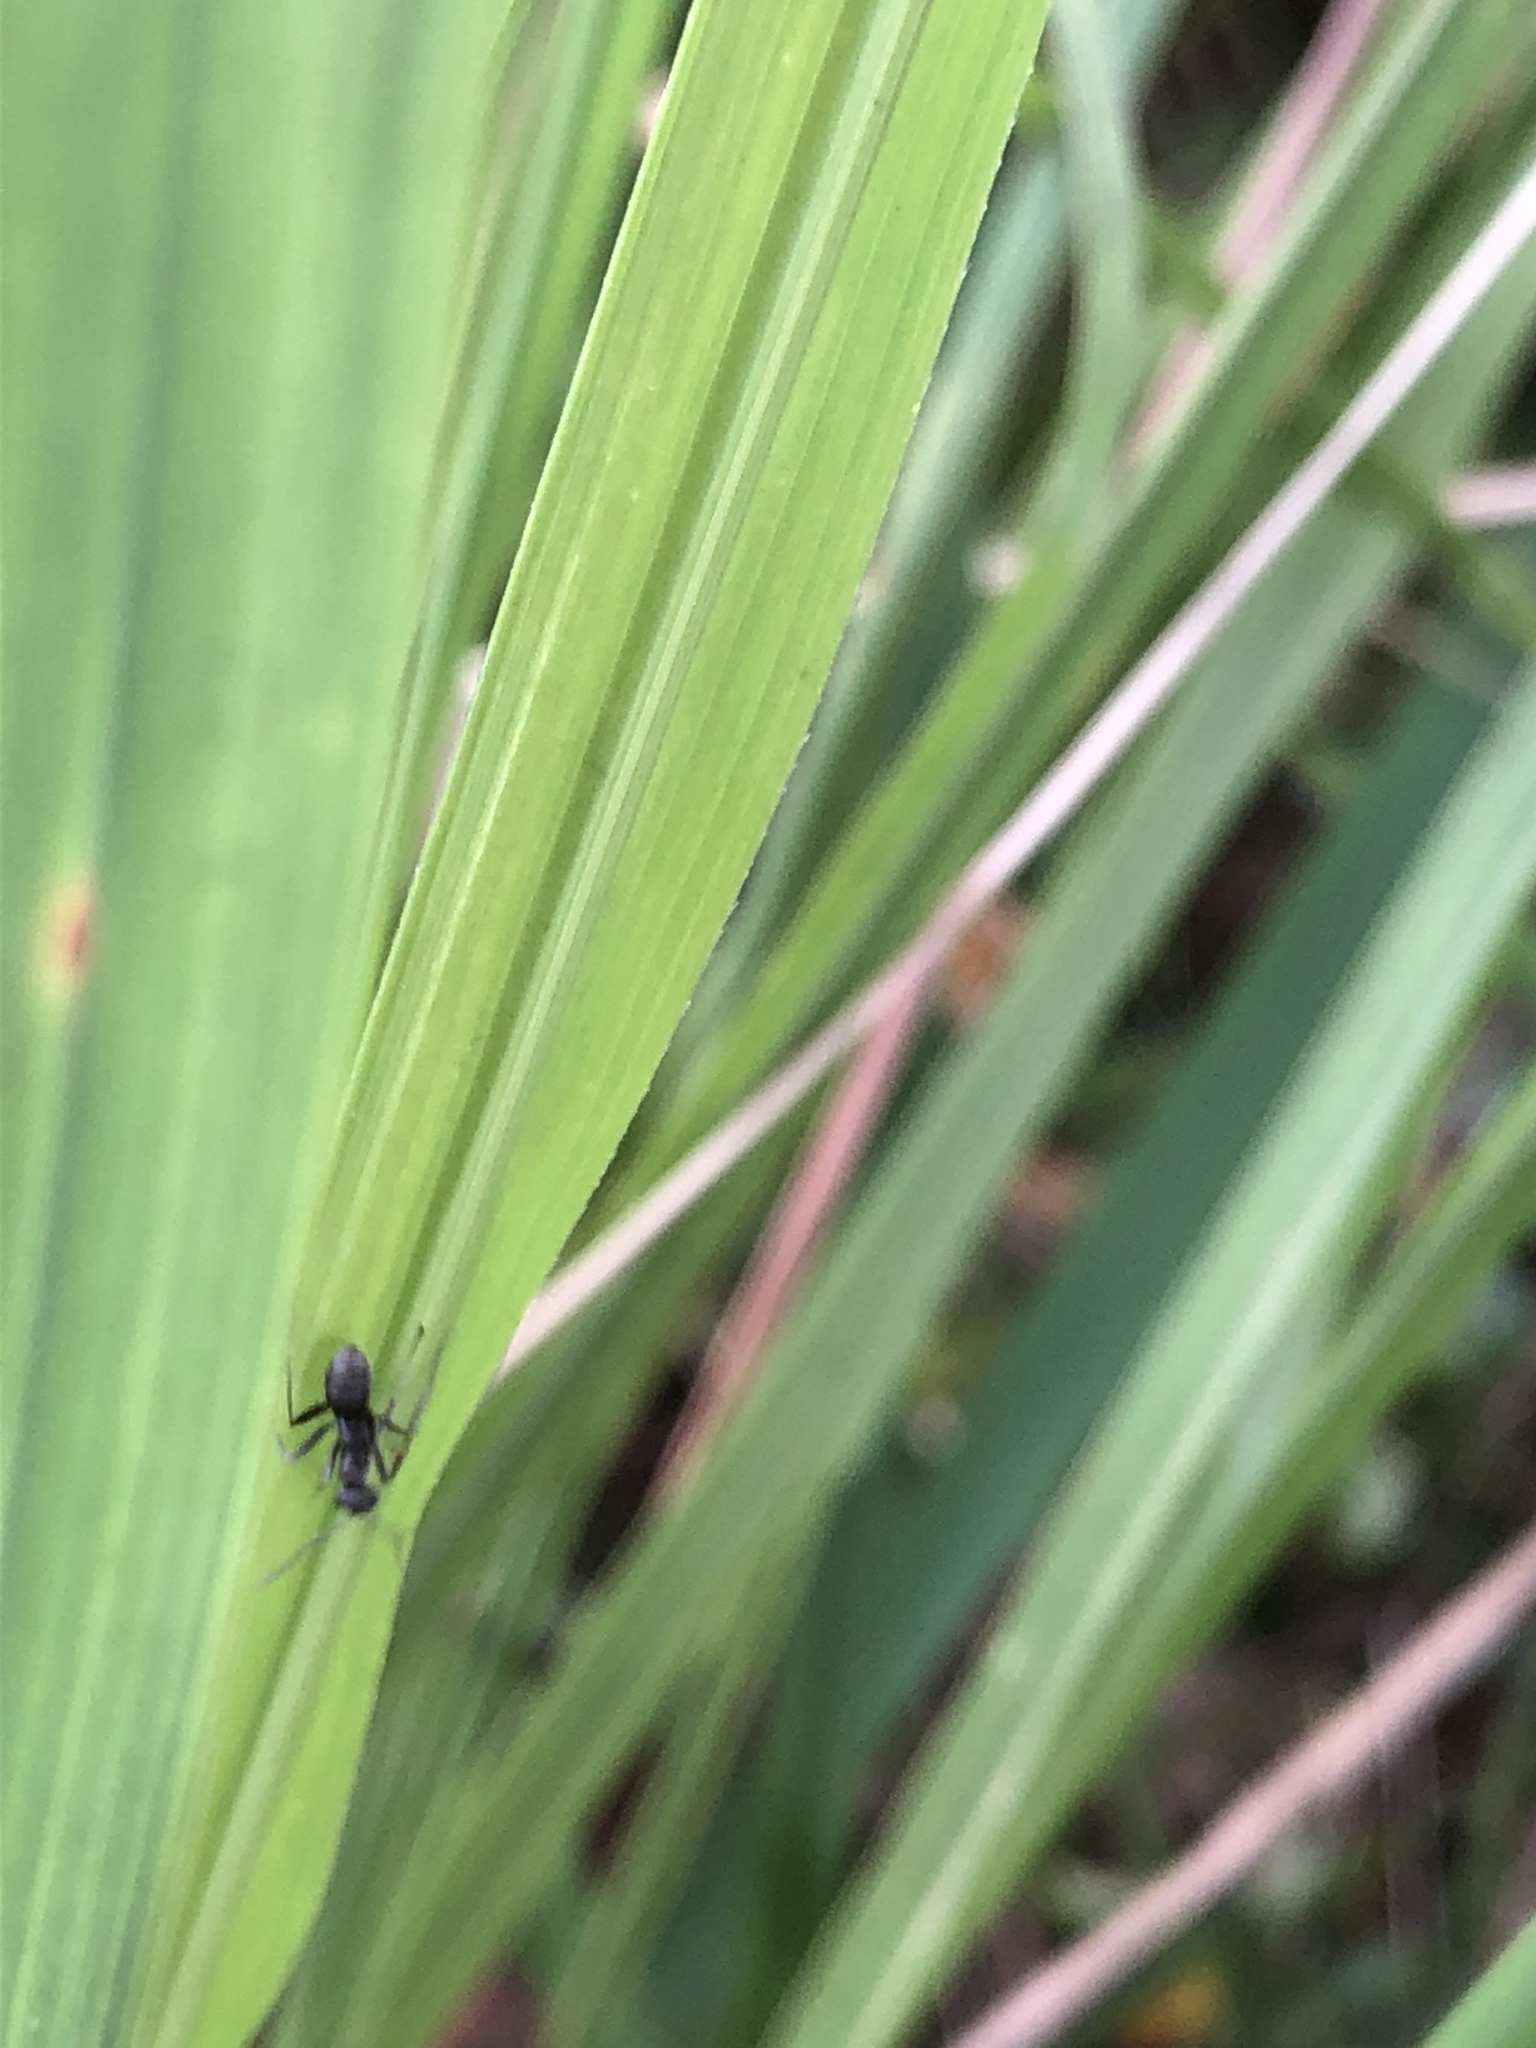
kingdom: Animalia
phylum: Arthropoda
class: Insecta
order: Hymenoptera
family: Formicidae
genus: Formica
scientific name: Formica japonica
